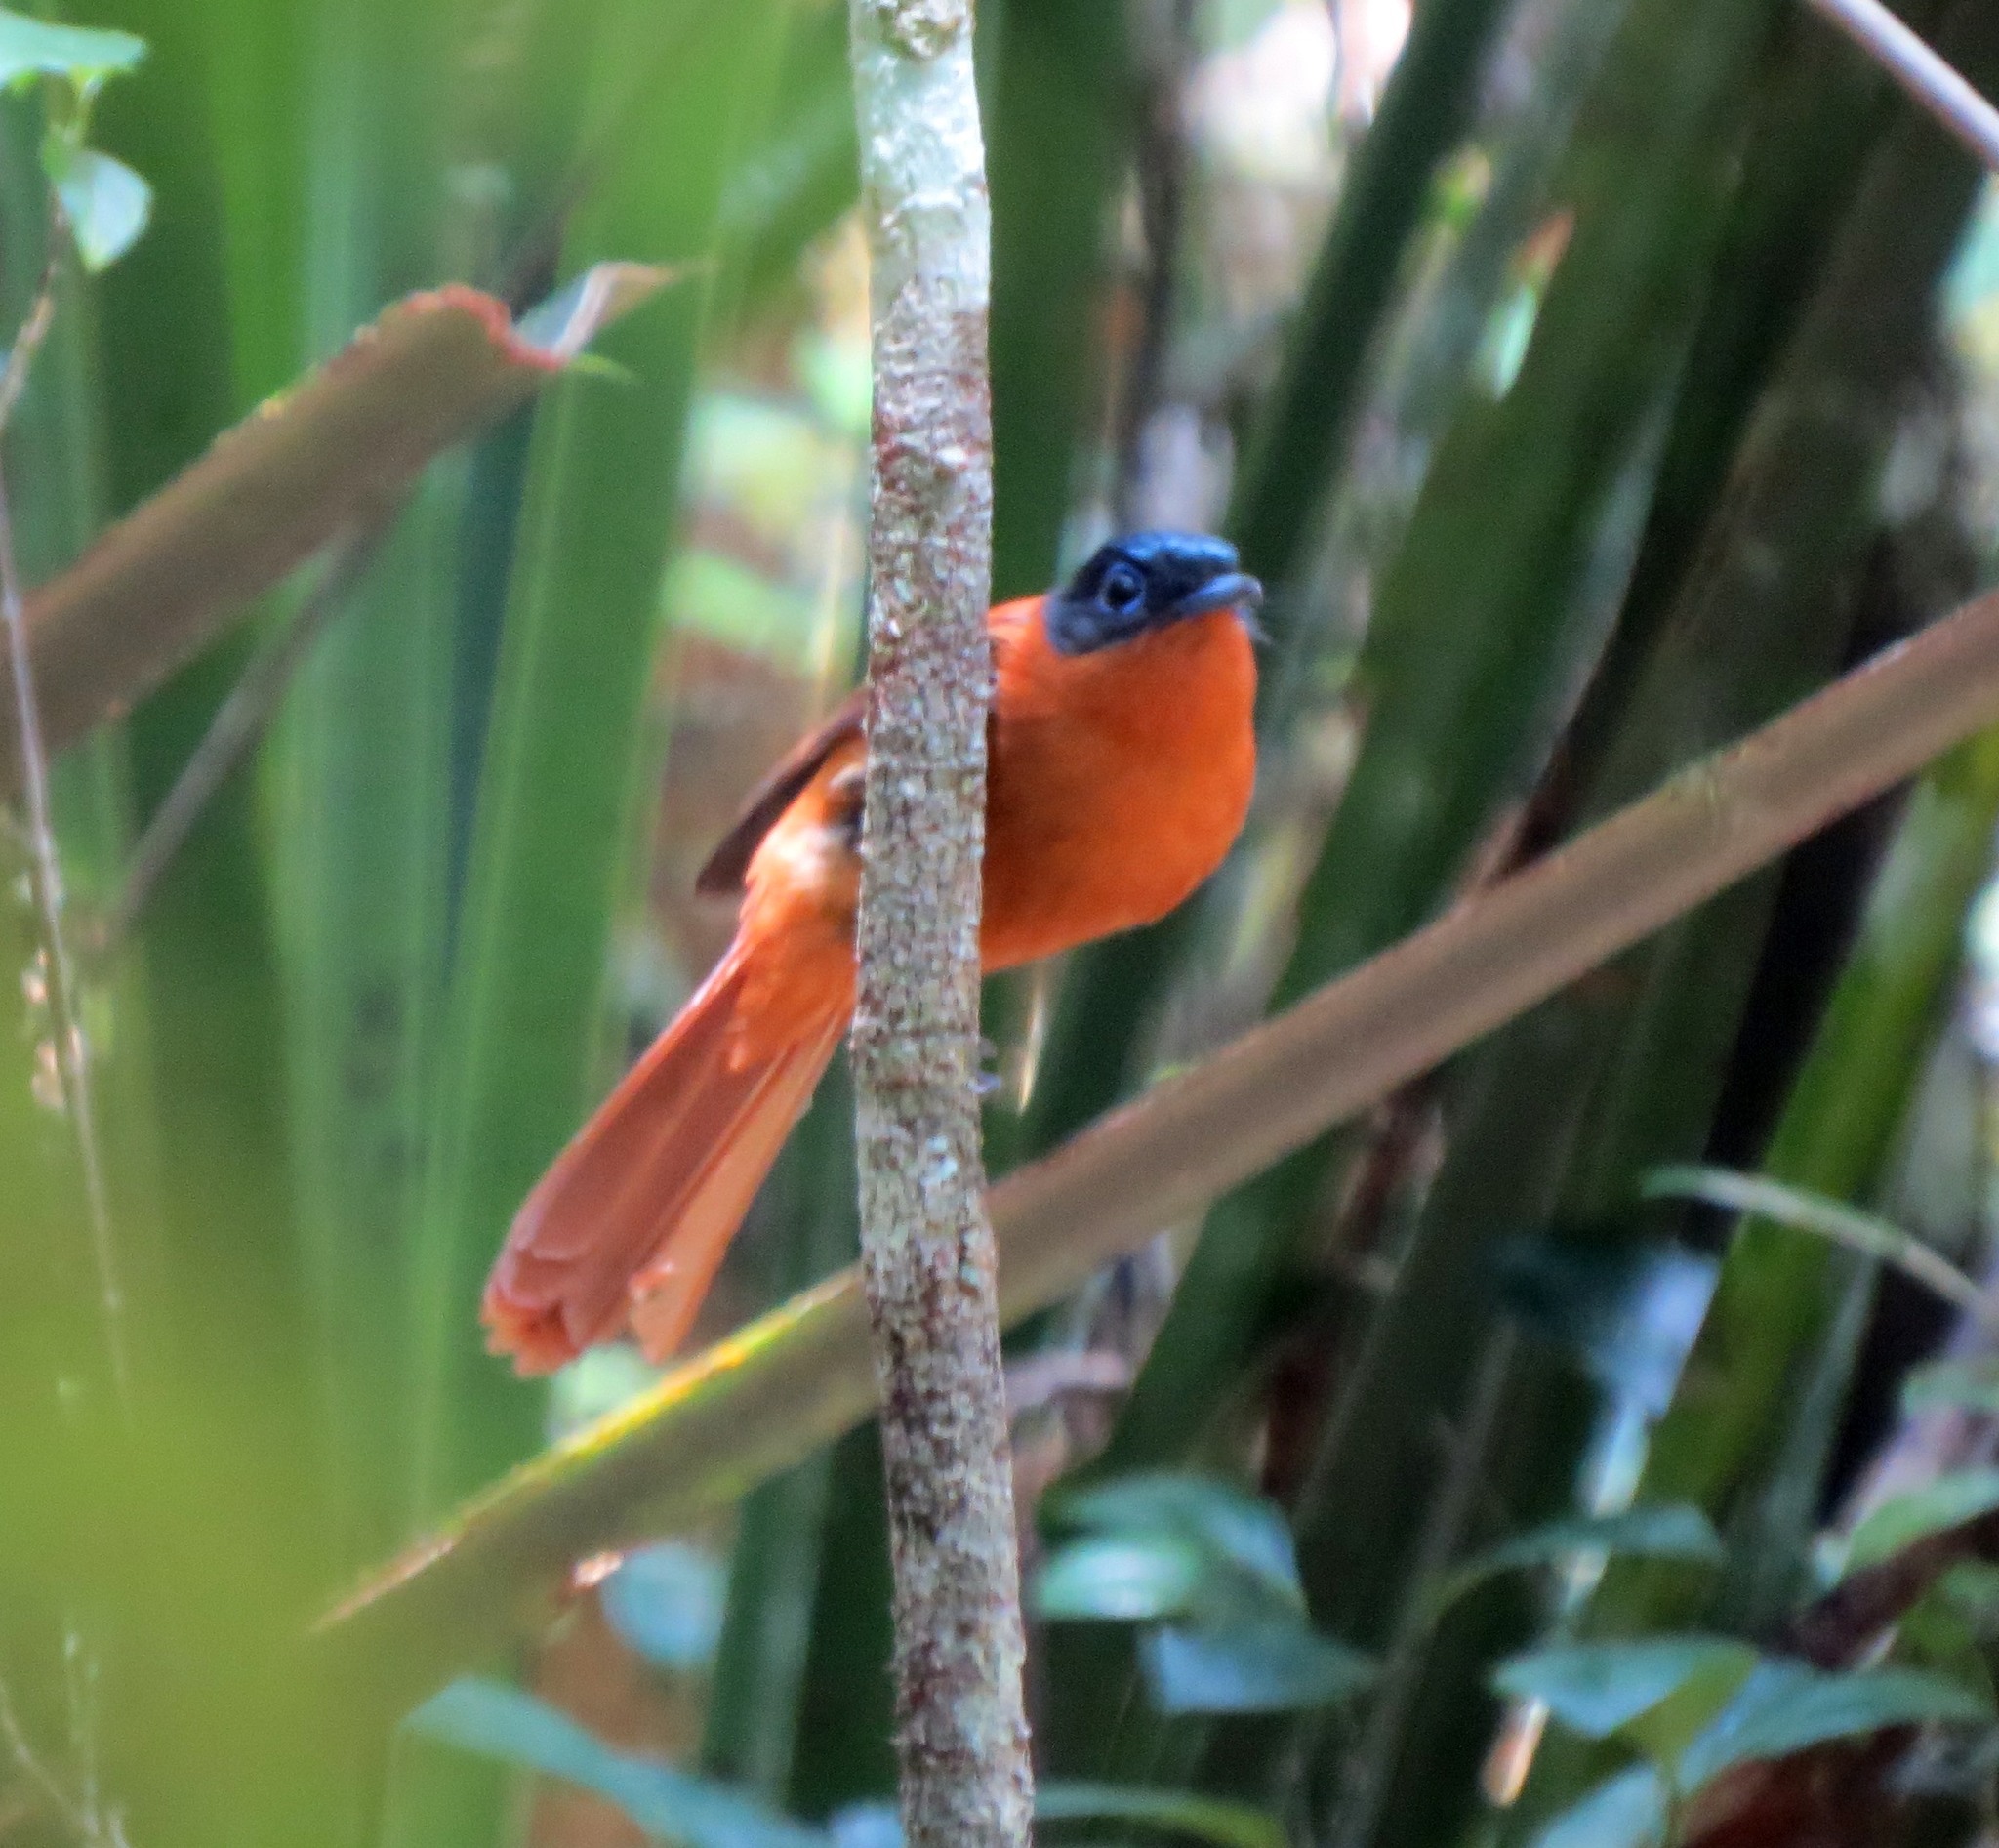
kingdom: Animalia
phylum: Chordata
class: Aves
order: Passeriformes
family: Monarchidae
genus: Terpsiphone
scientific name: Terpsiphone mutata
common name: Malagasy paradise flycatcher
